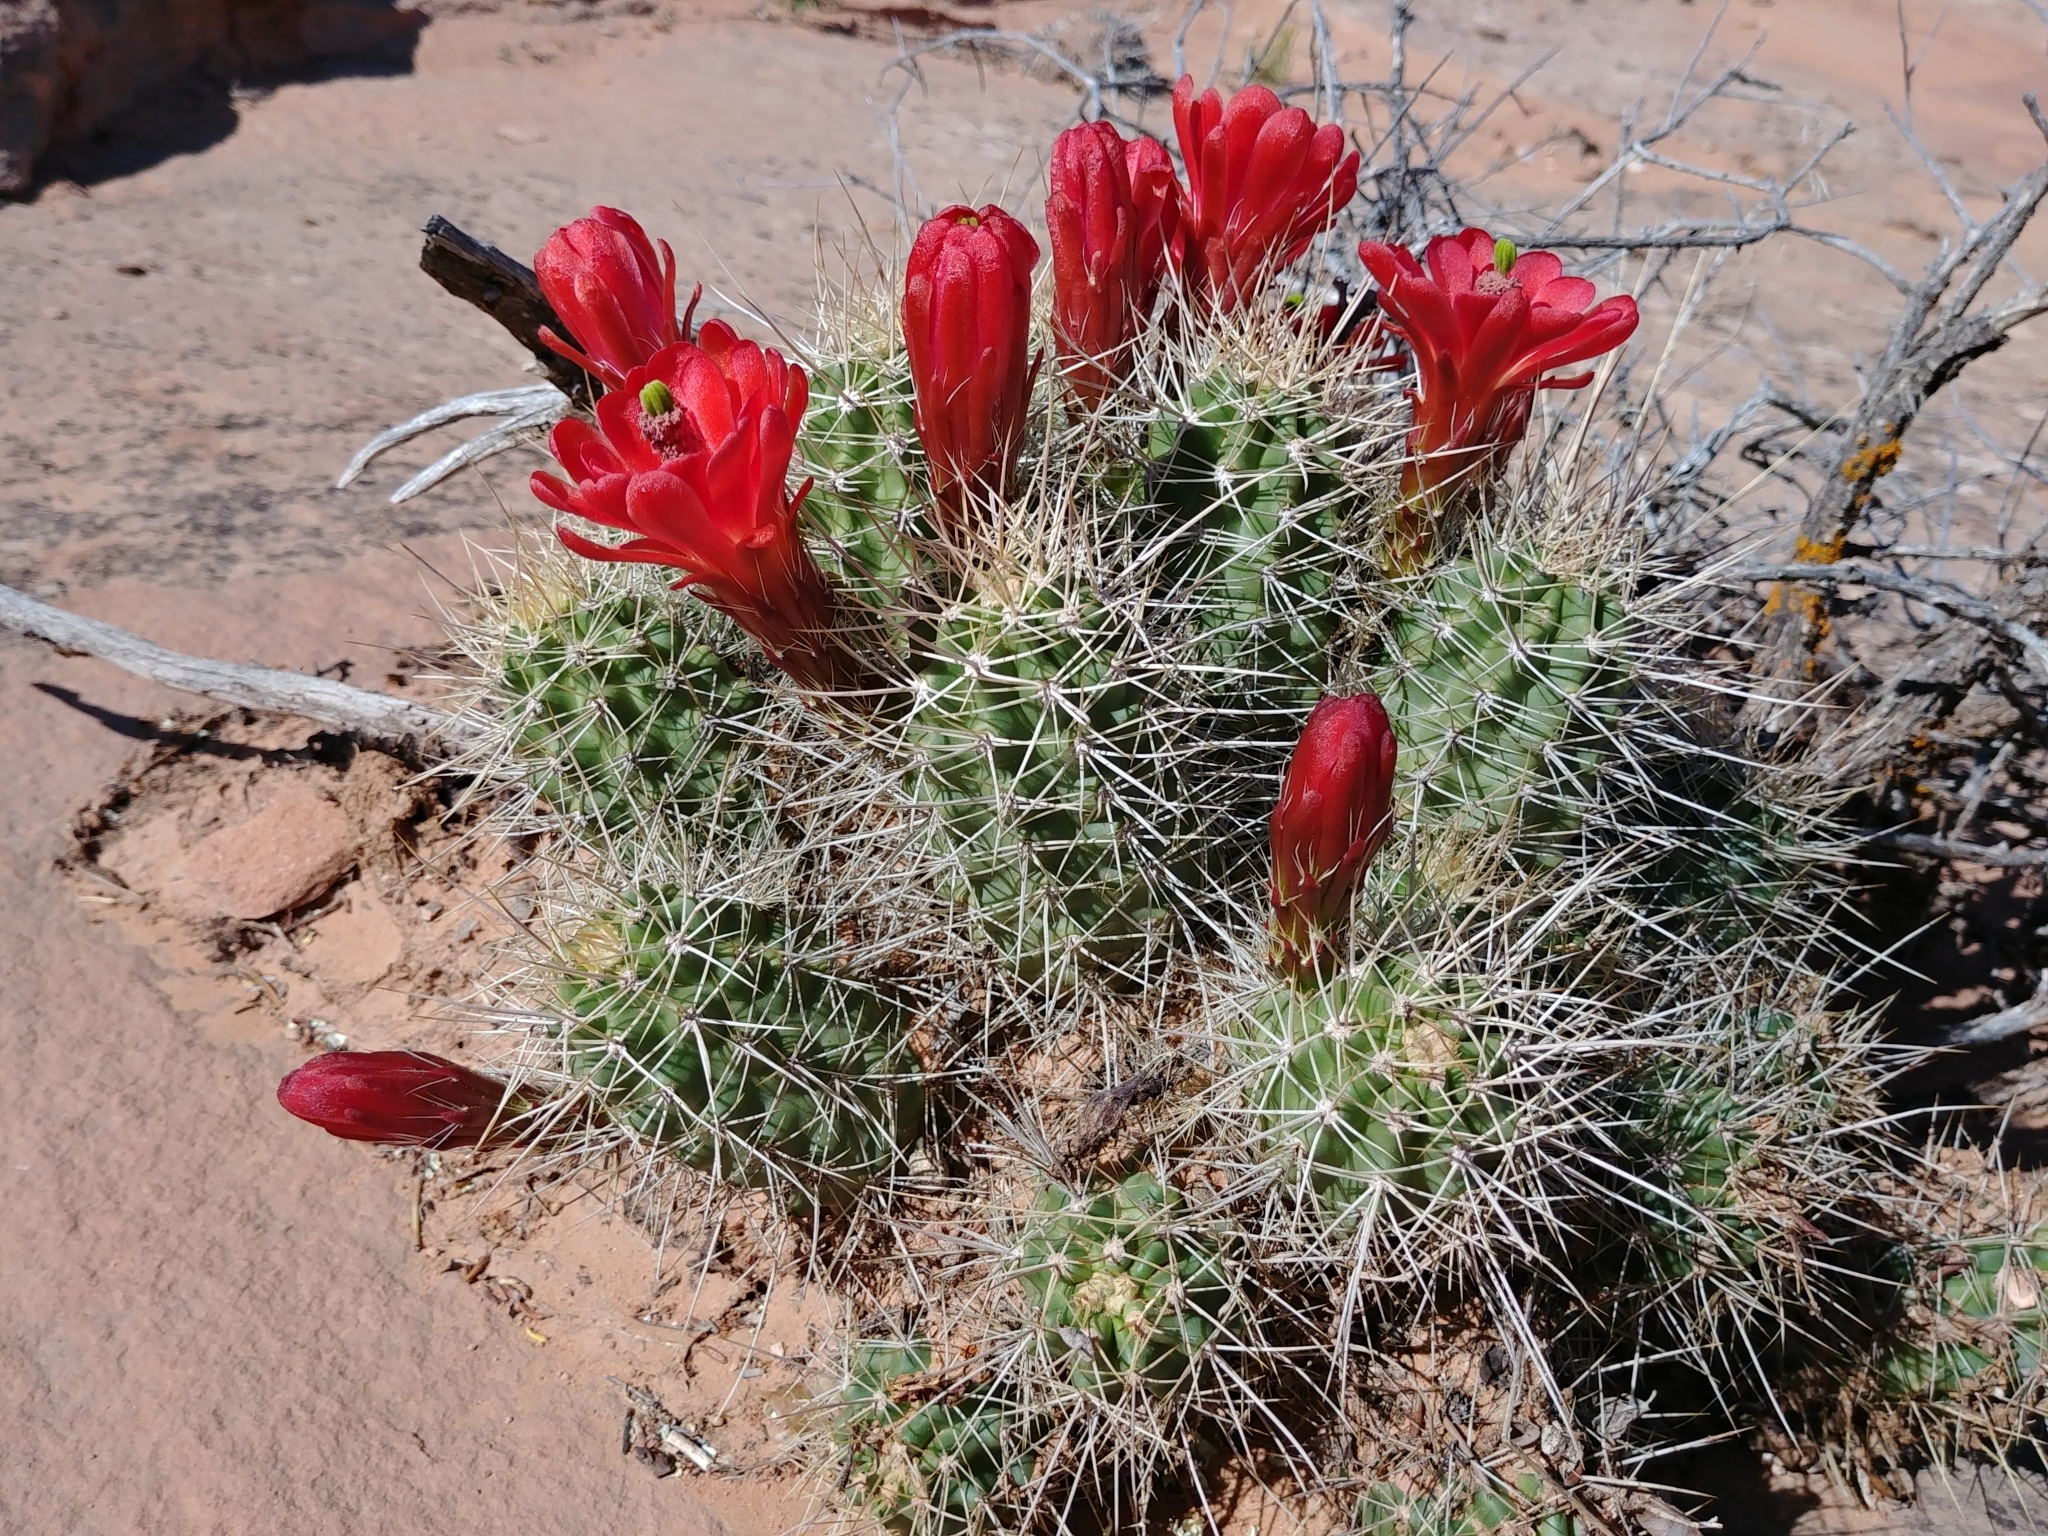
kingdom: Plantae
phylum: Tracheophyta
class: Magnoliopsida
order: Caryophyllales
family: Cactaceae
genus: Echinocereus
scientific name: Echinocereus triglochidiatus
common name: Claretcup hedgehog
